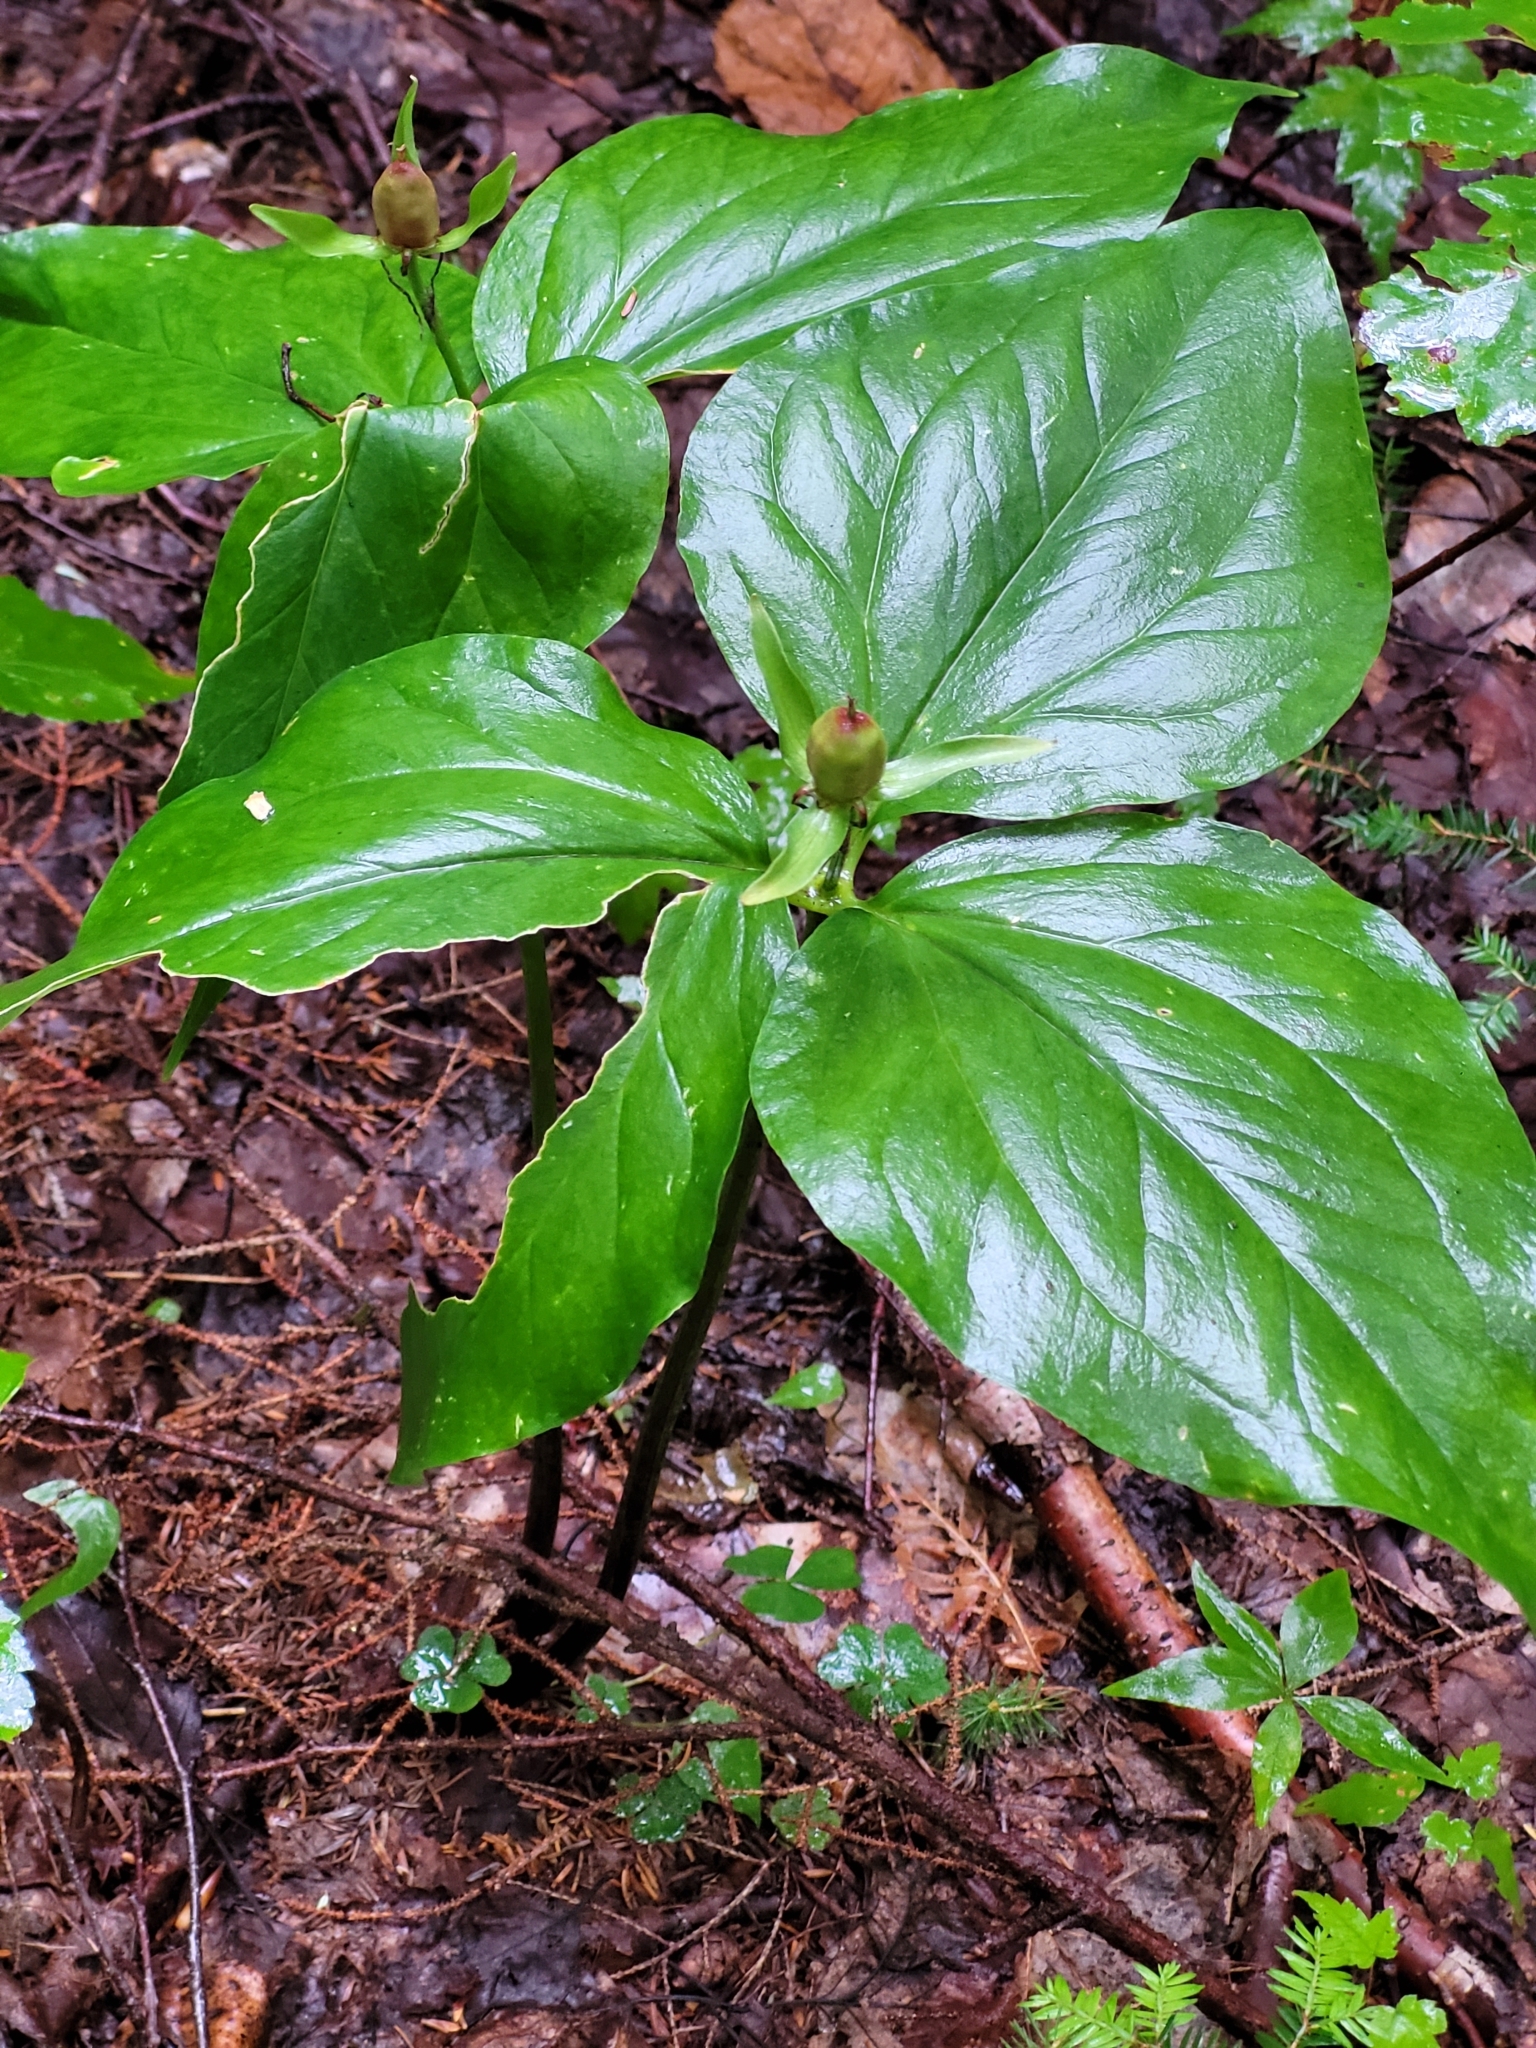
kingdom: Plantae
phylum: Tracheophyta
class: Liliopsida
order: Liliales
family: Melanthiaceae
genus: Trillium
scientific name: Trillium undulatum
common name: Paint trillium
